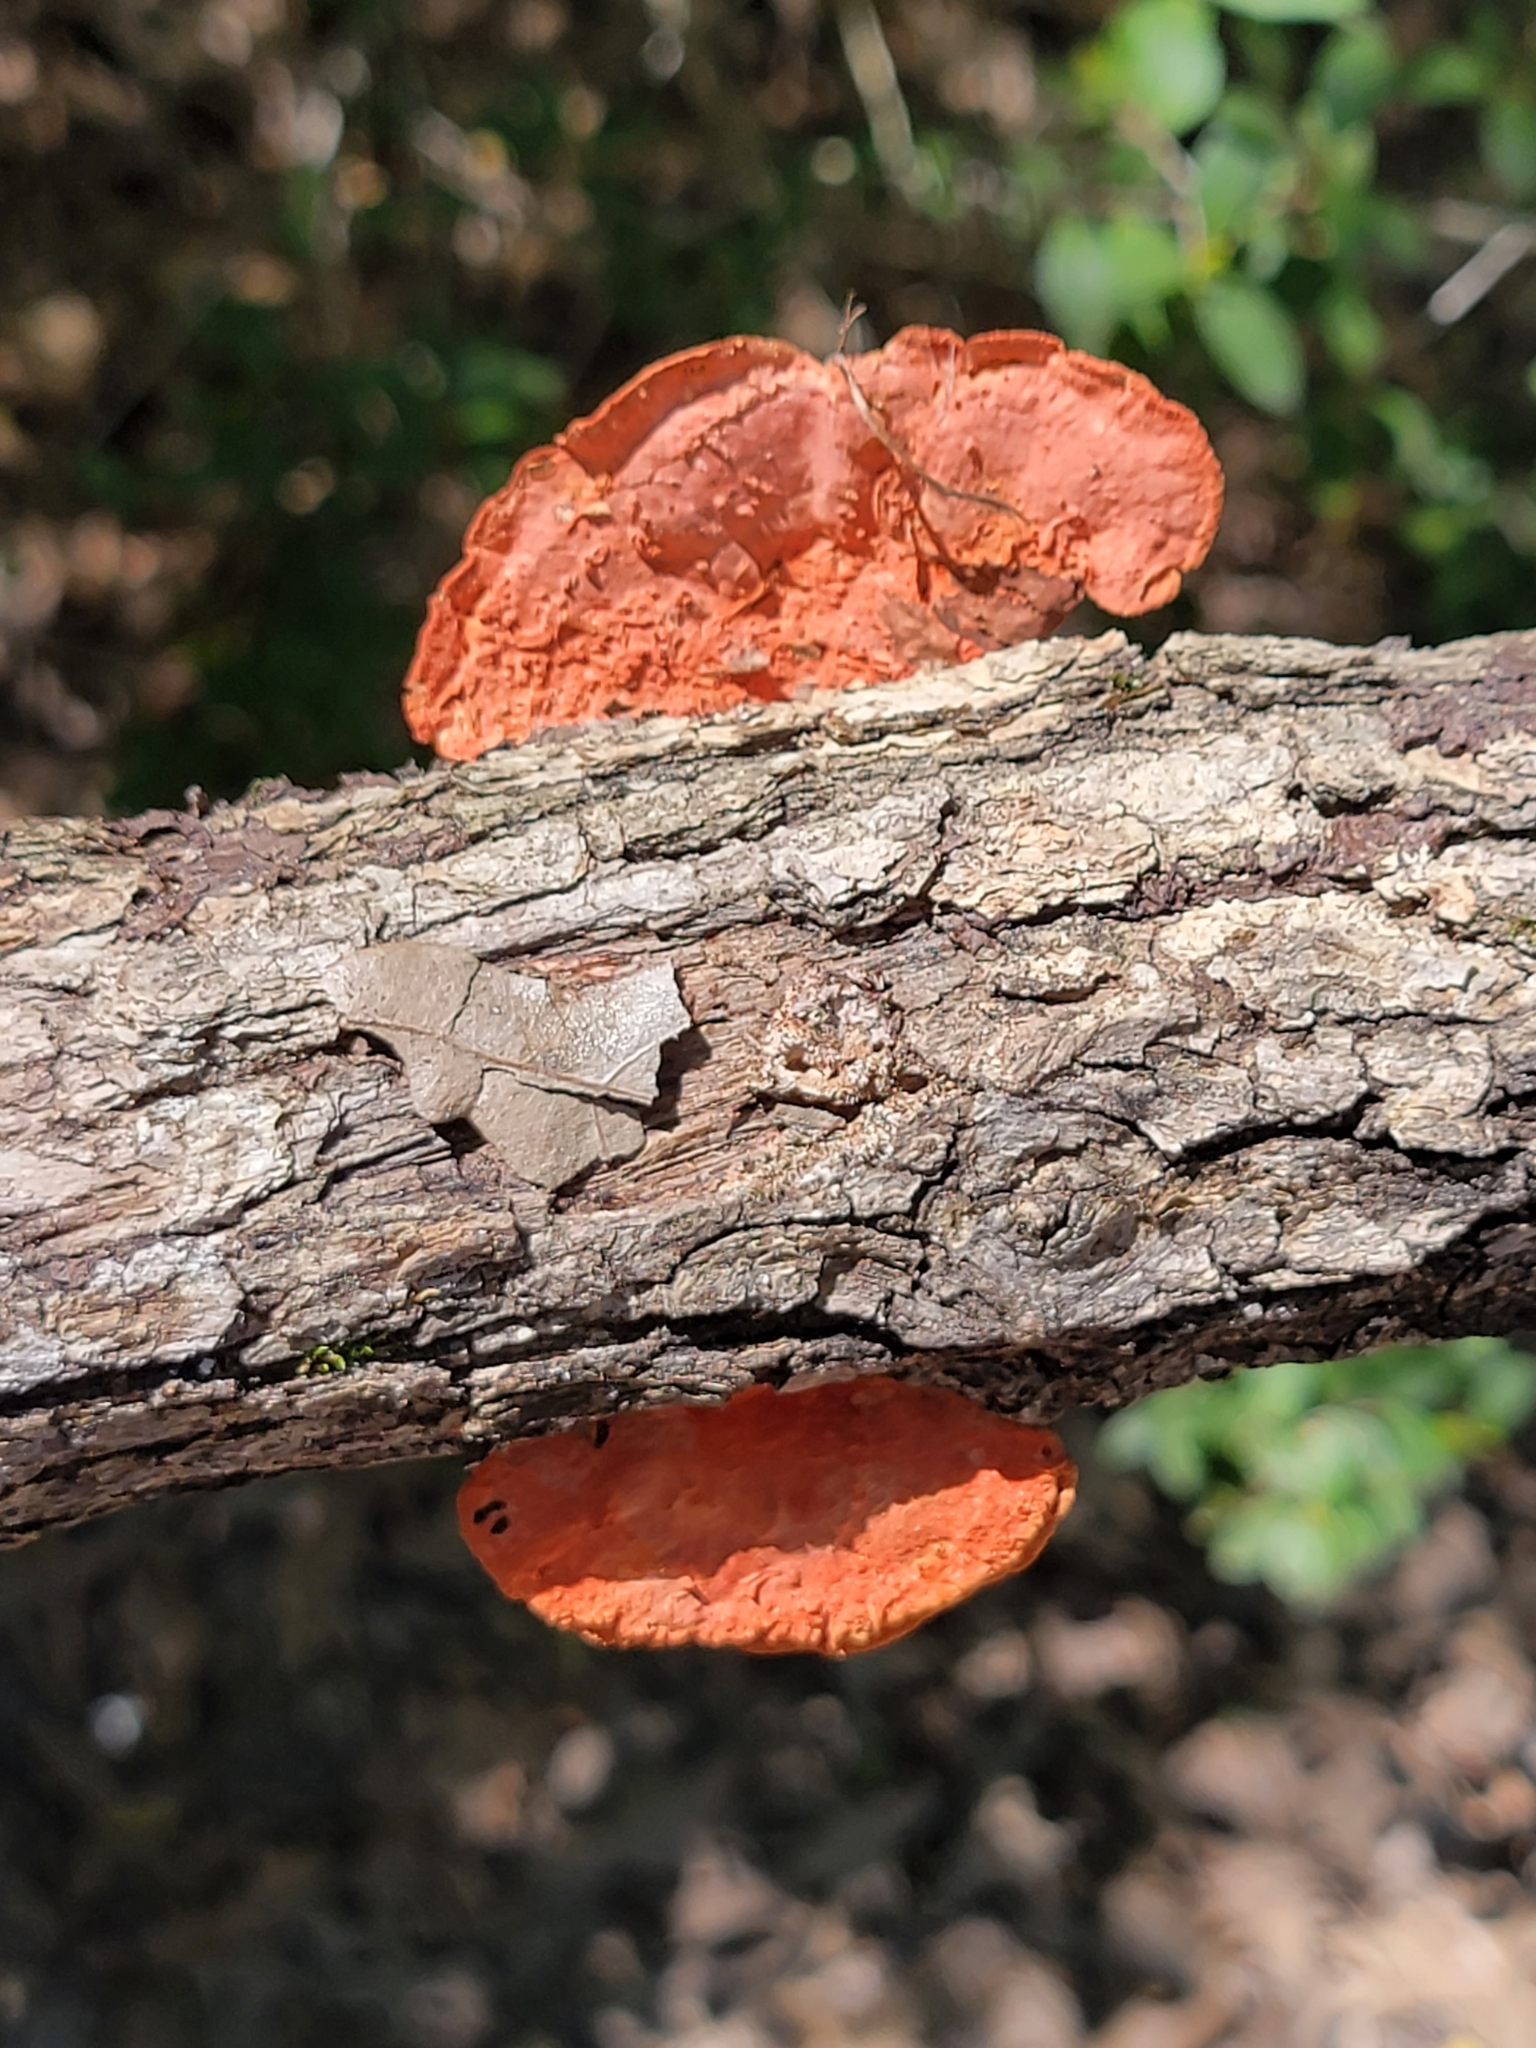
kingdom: Fungi
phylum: Basidiomycota
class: Agaricomycetes
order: Polyporales
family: Polyporaceae
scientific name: Polyporaceae
